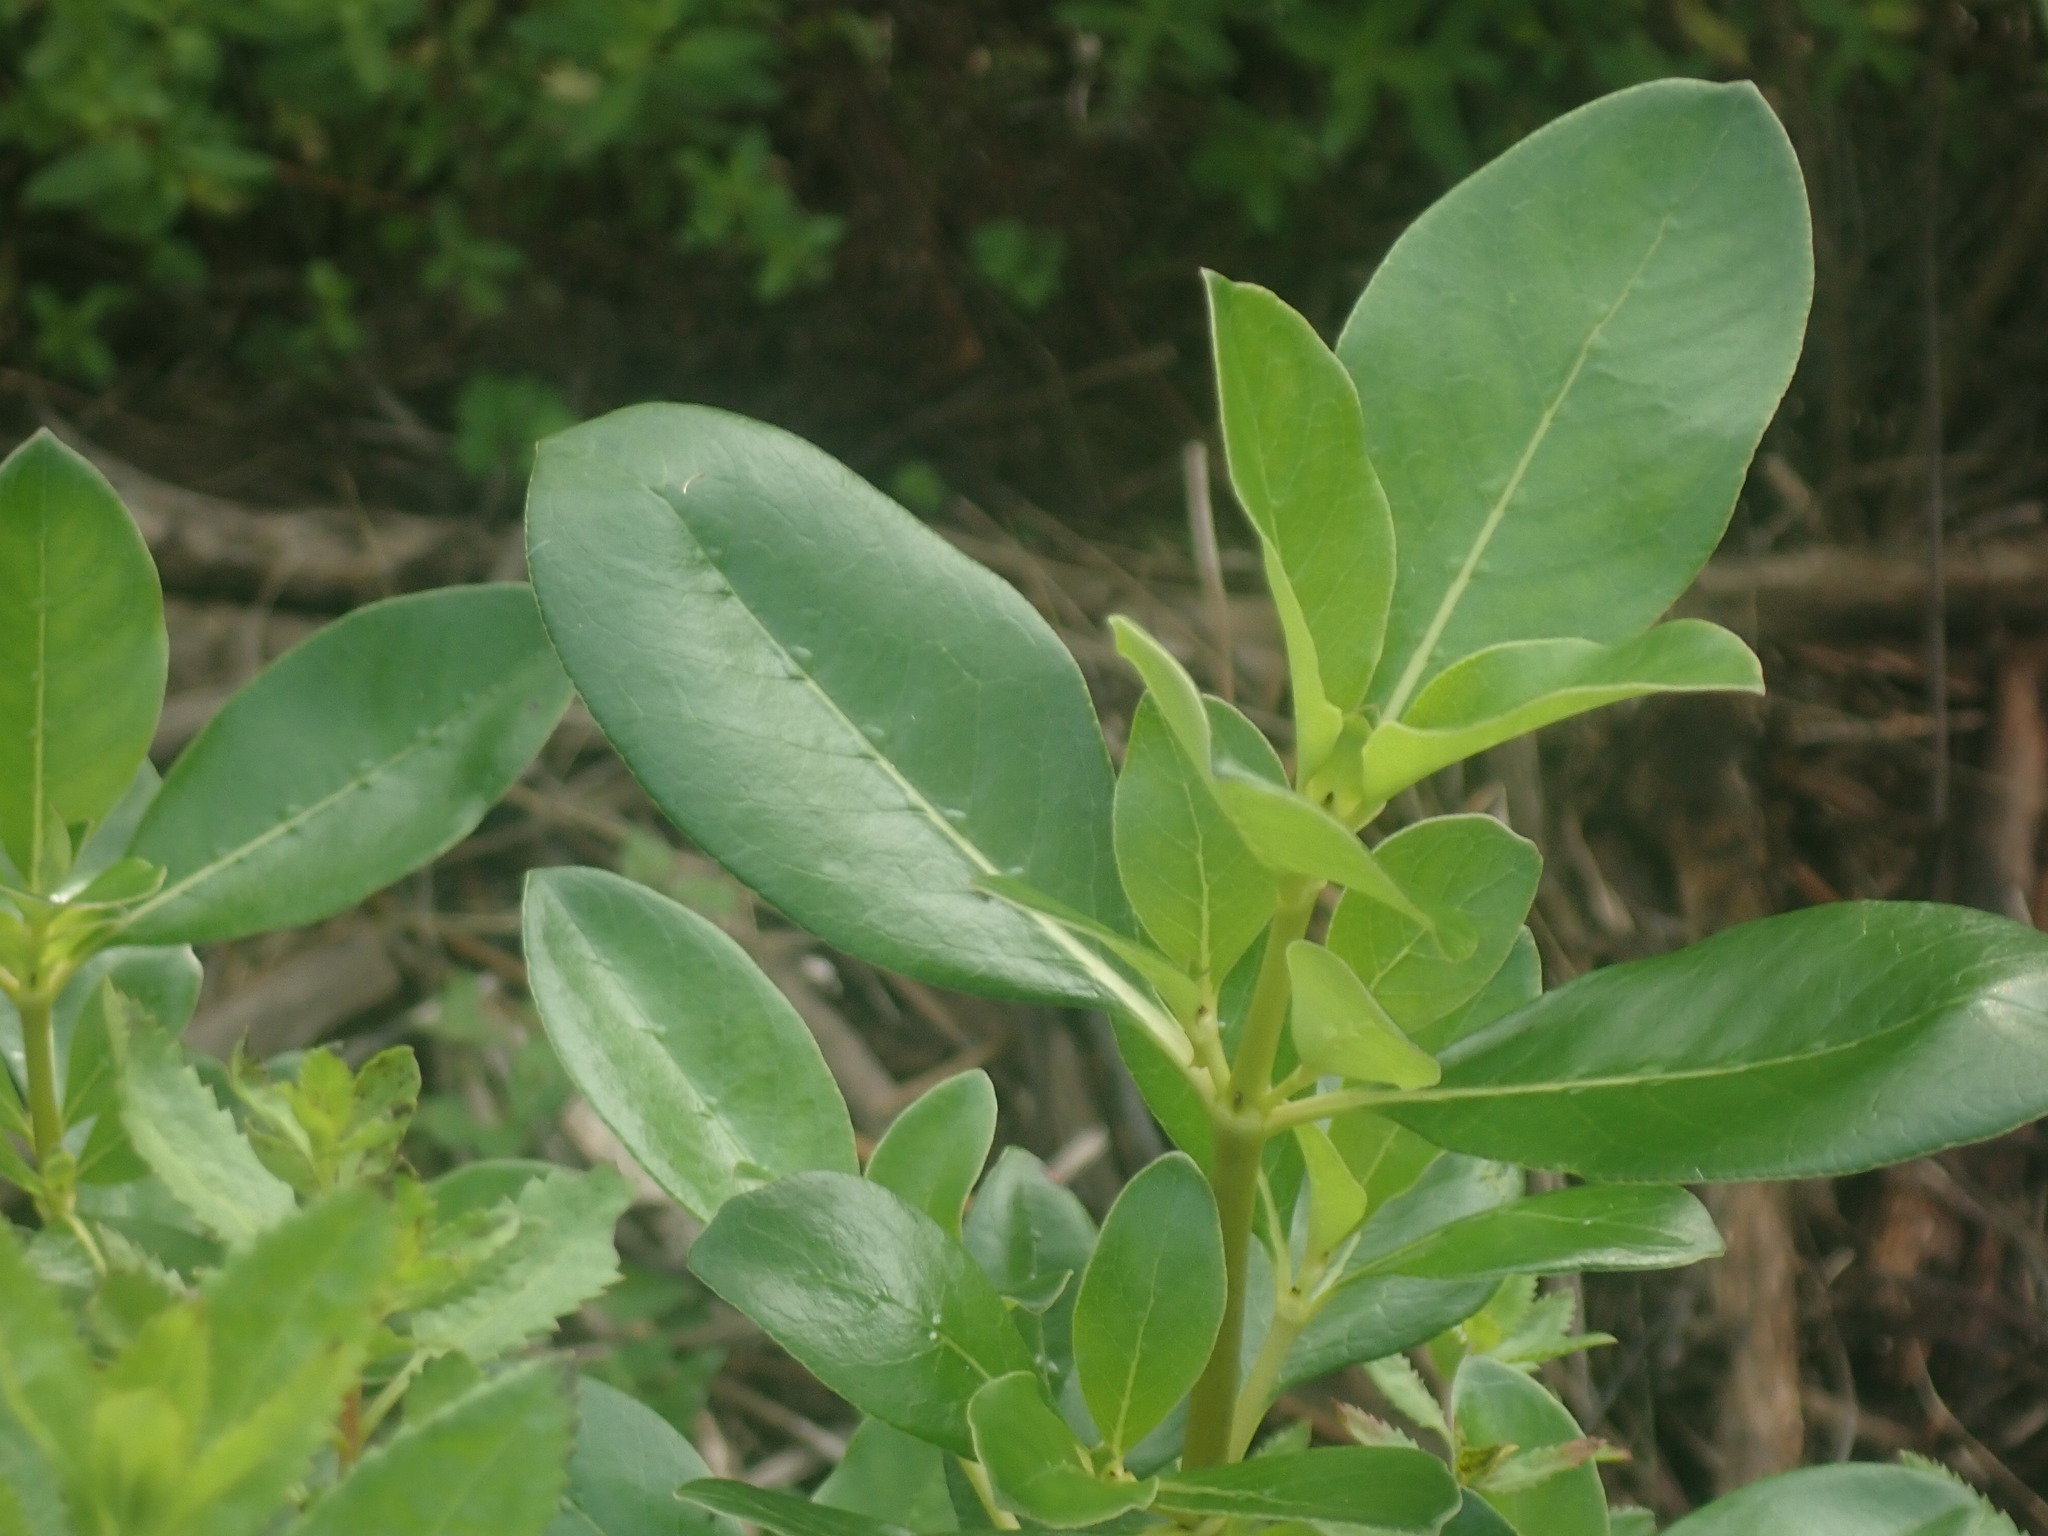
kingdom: Plantae
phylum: Tracheophyta
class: Magnoliopsida
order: Gentianales
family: Rubiaceae
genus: Coprosma
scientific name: Coprosma robusta
